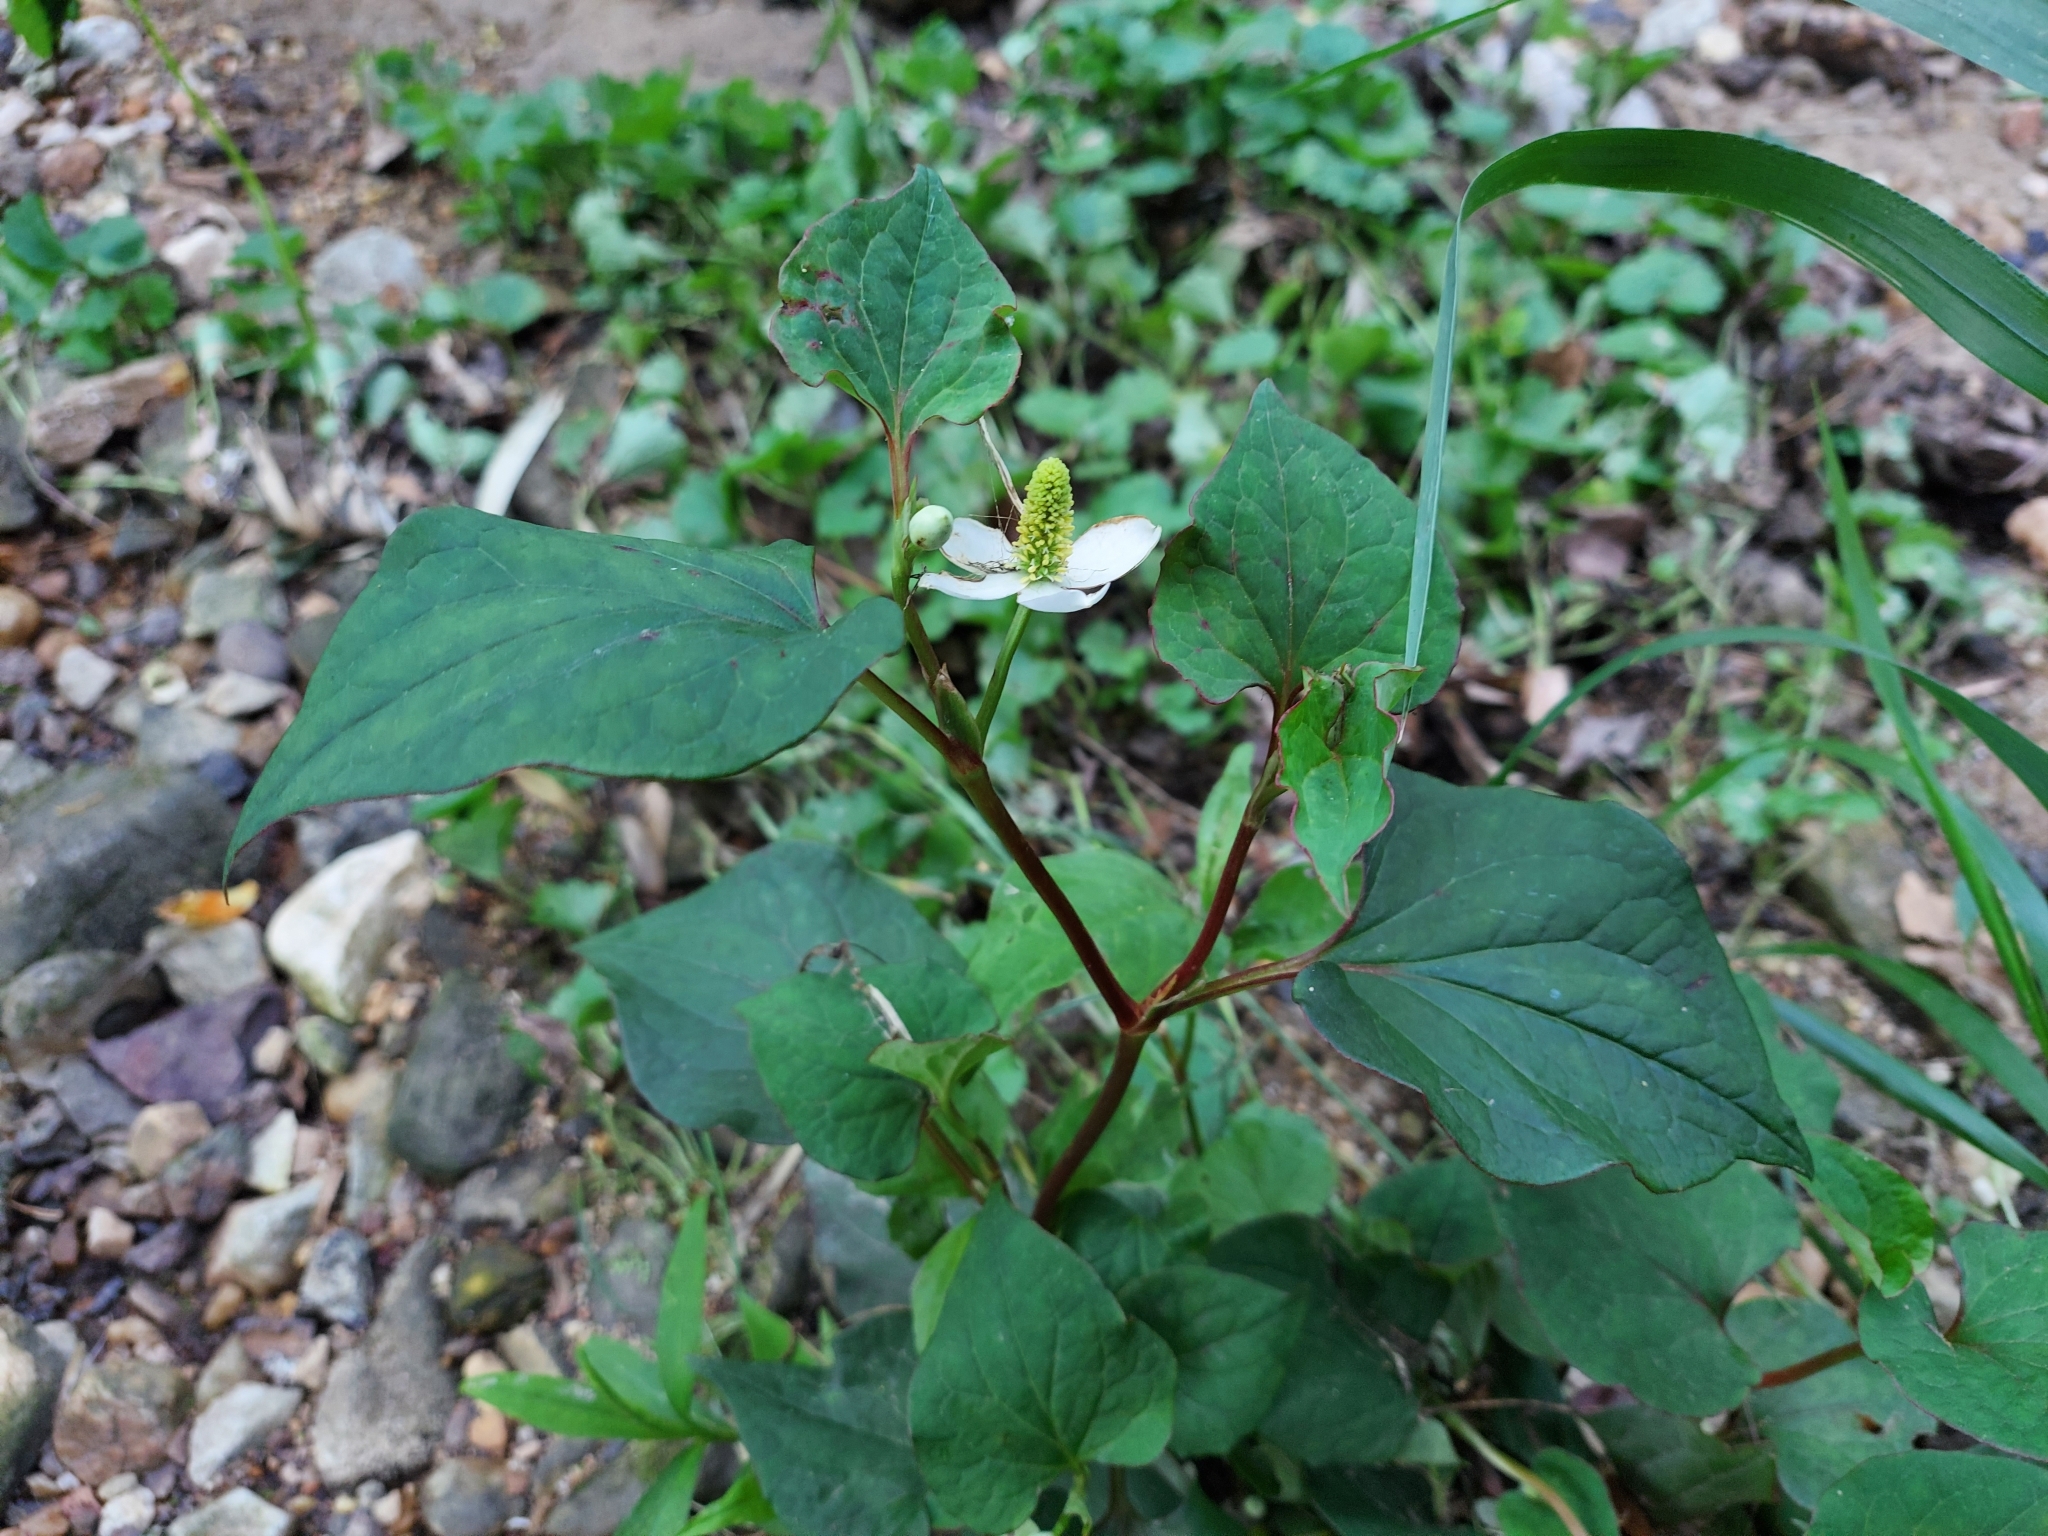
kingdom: Plantae
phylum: Tracheophyta
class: Magnoliopsida
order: Piperales
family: Saururaceae
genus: Houttuynia
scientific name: Houttuynia cordata
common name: Chameleon
